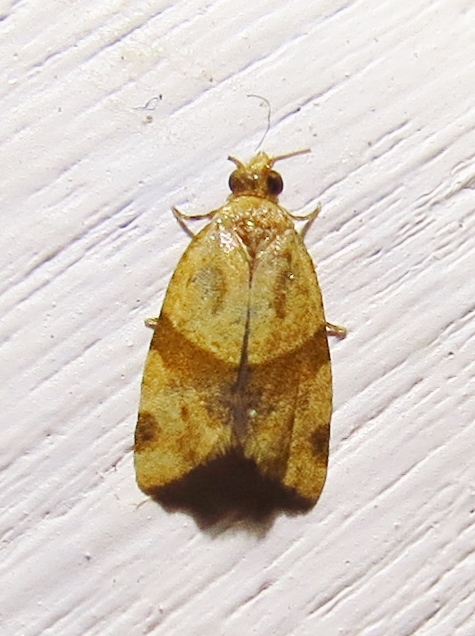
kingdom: Animalia
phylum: Arthropoda
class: Insecta
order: Lepidoptera
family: Tortricidae
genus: Clepsis
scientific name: Clepsis peritana
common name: Garden tortrix
